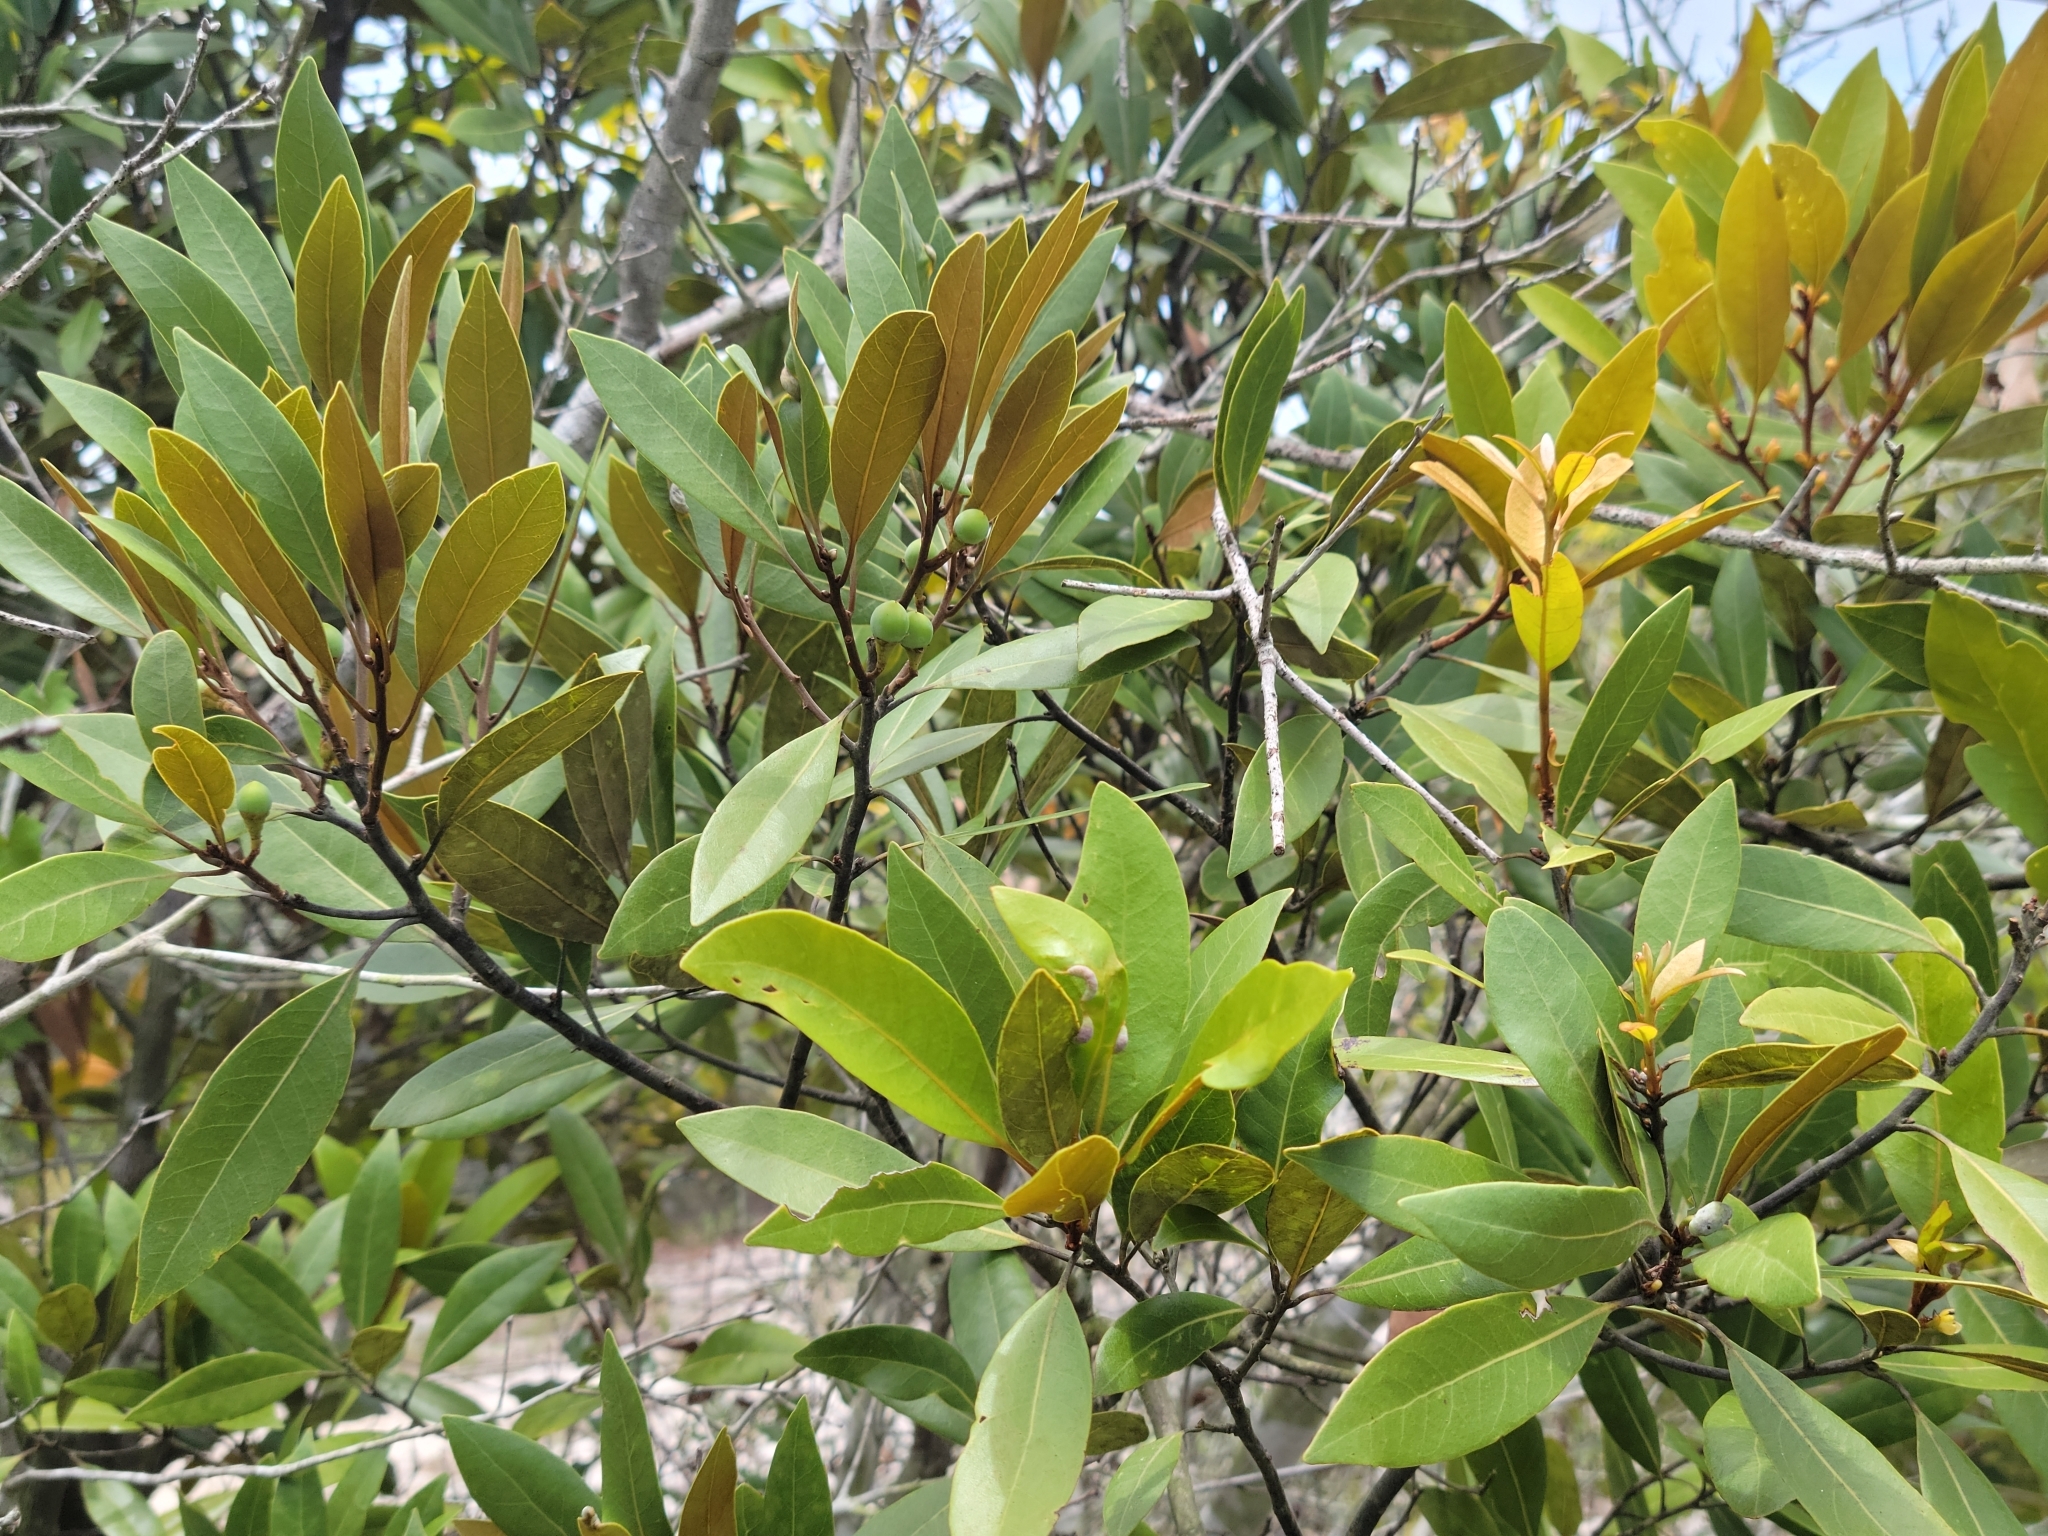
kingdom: Plantae
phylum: Tracheophyta
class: Magnoliopsida
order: Laurales
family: Lauraceae
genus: Persea
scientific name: Persea humilis
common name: Silkbay
